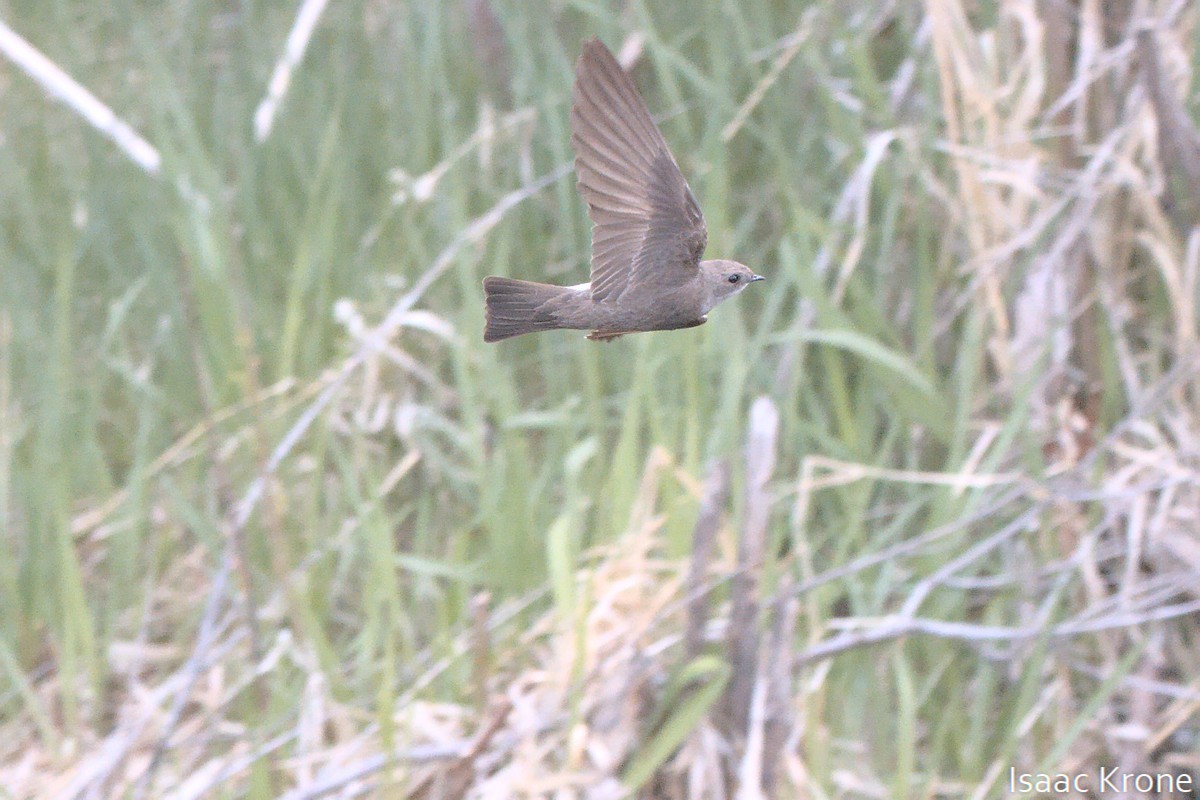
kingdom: Animalia
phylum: Chordata
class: Aves
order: Passeriformes
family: Hirundinidae
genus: Stelgidopteryx
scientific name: Stelgidopteryx serripennis
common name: Northern rough-winged swallow
